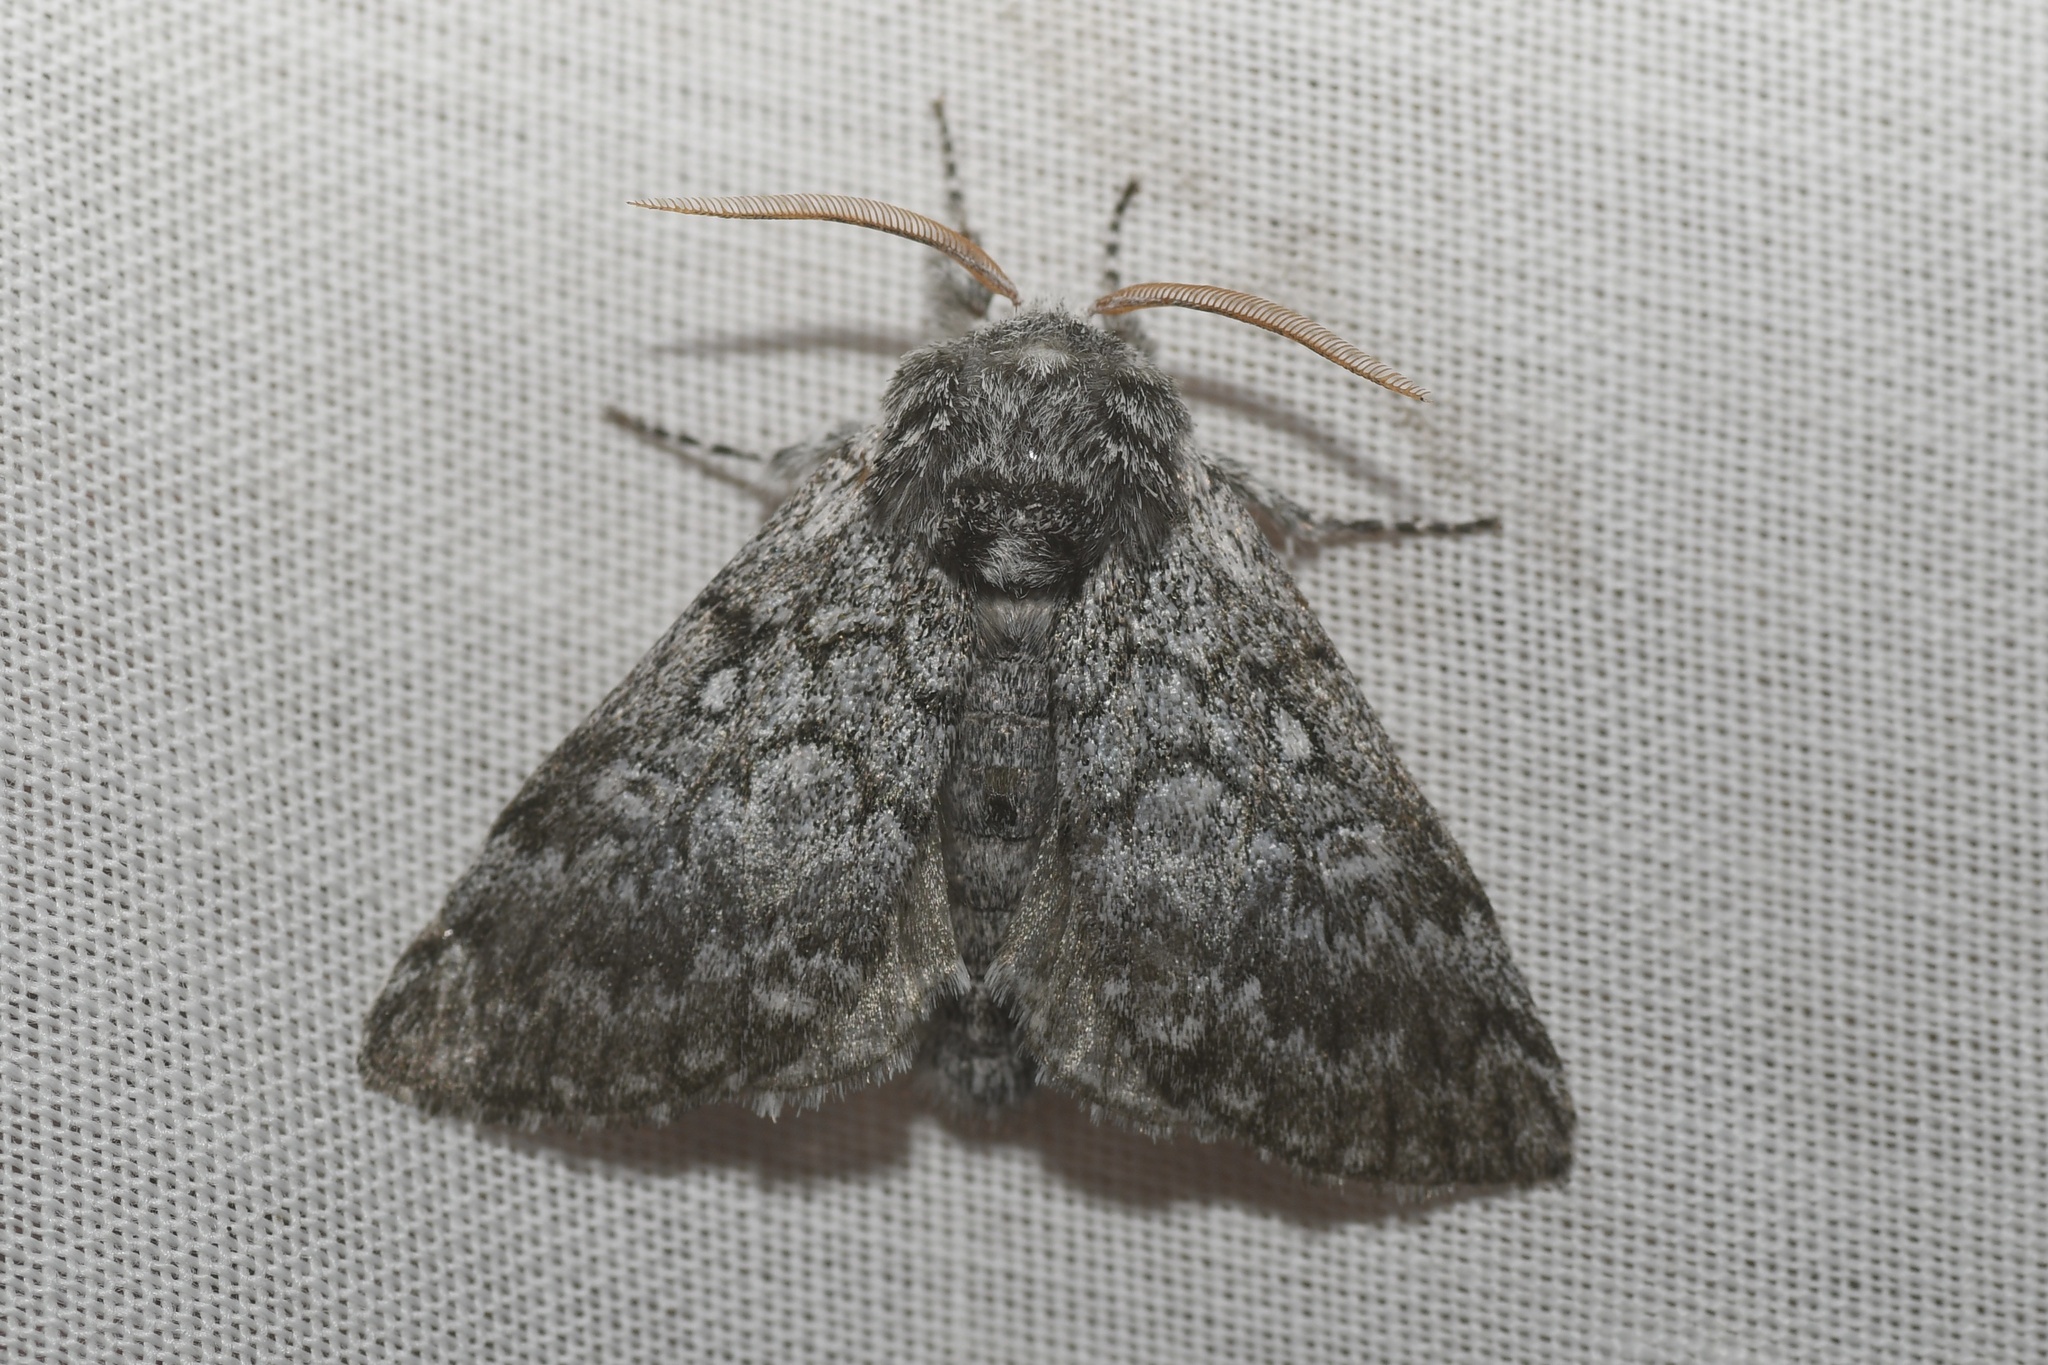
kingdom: Animalia
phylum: Arthropoda
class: Insecta
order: Lepidoptera
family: Noctuidae
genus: Colocasia
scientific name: Colocasia propinquilinea
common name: Close-banded demas
